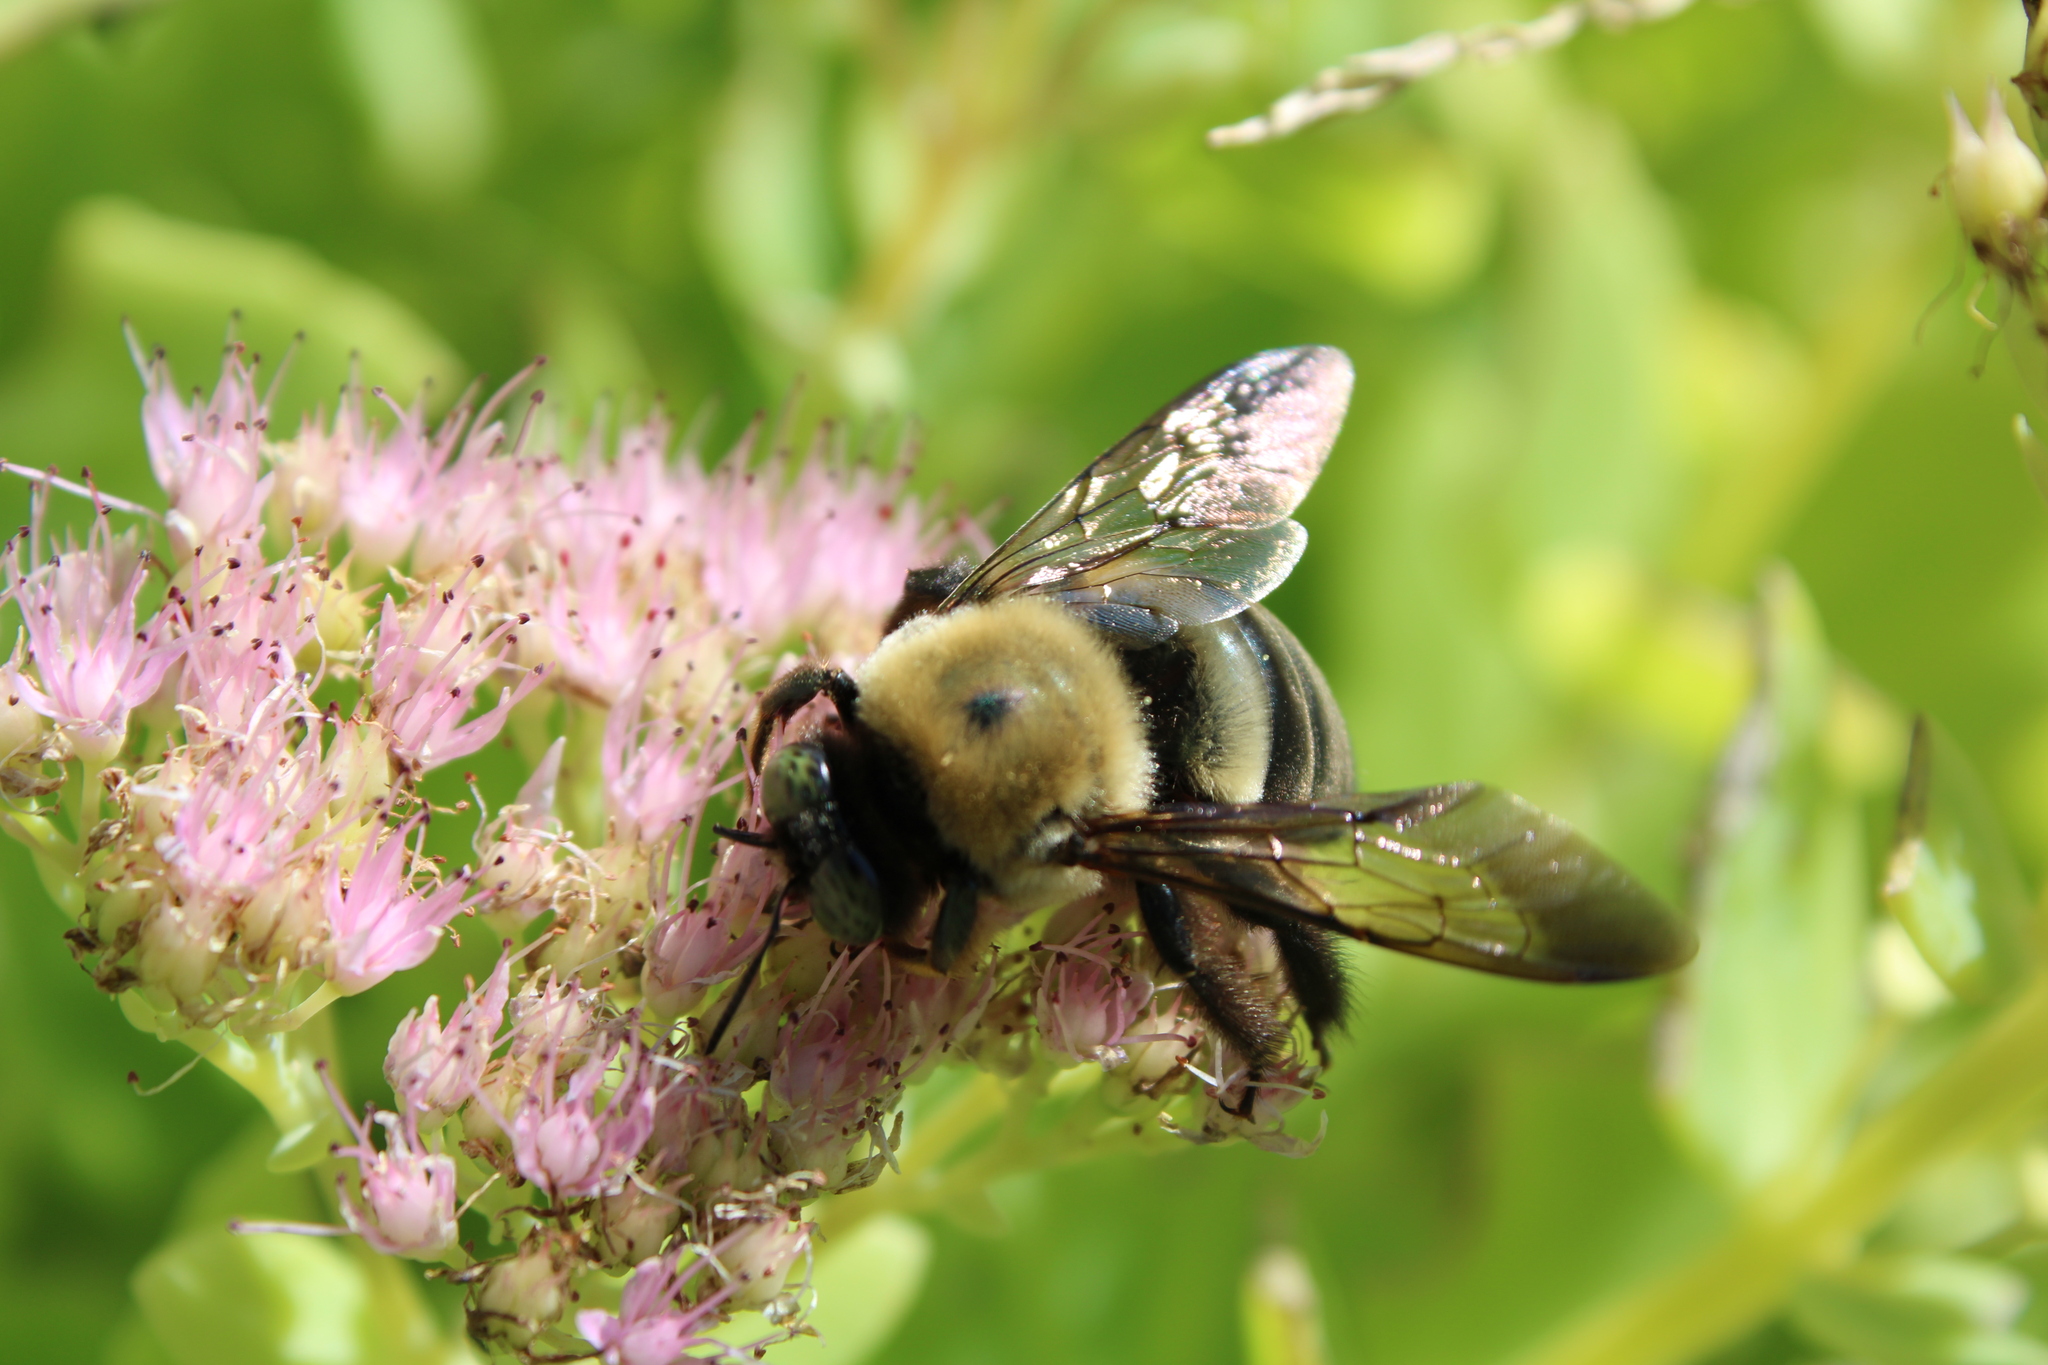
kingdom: Animalia
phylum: Arthropoda
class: Insecta
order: Hymenoptera
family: Apidae
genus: Xylocopa
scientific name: Xylocopa virginica
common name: Carpenter bee
